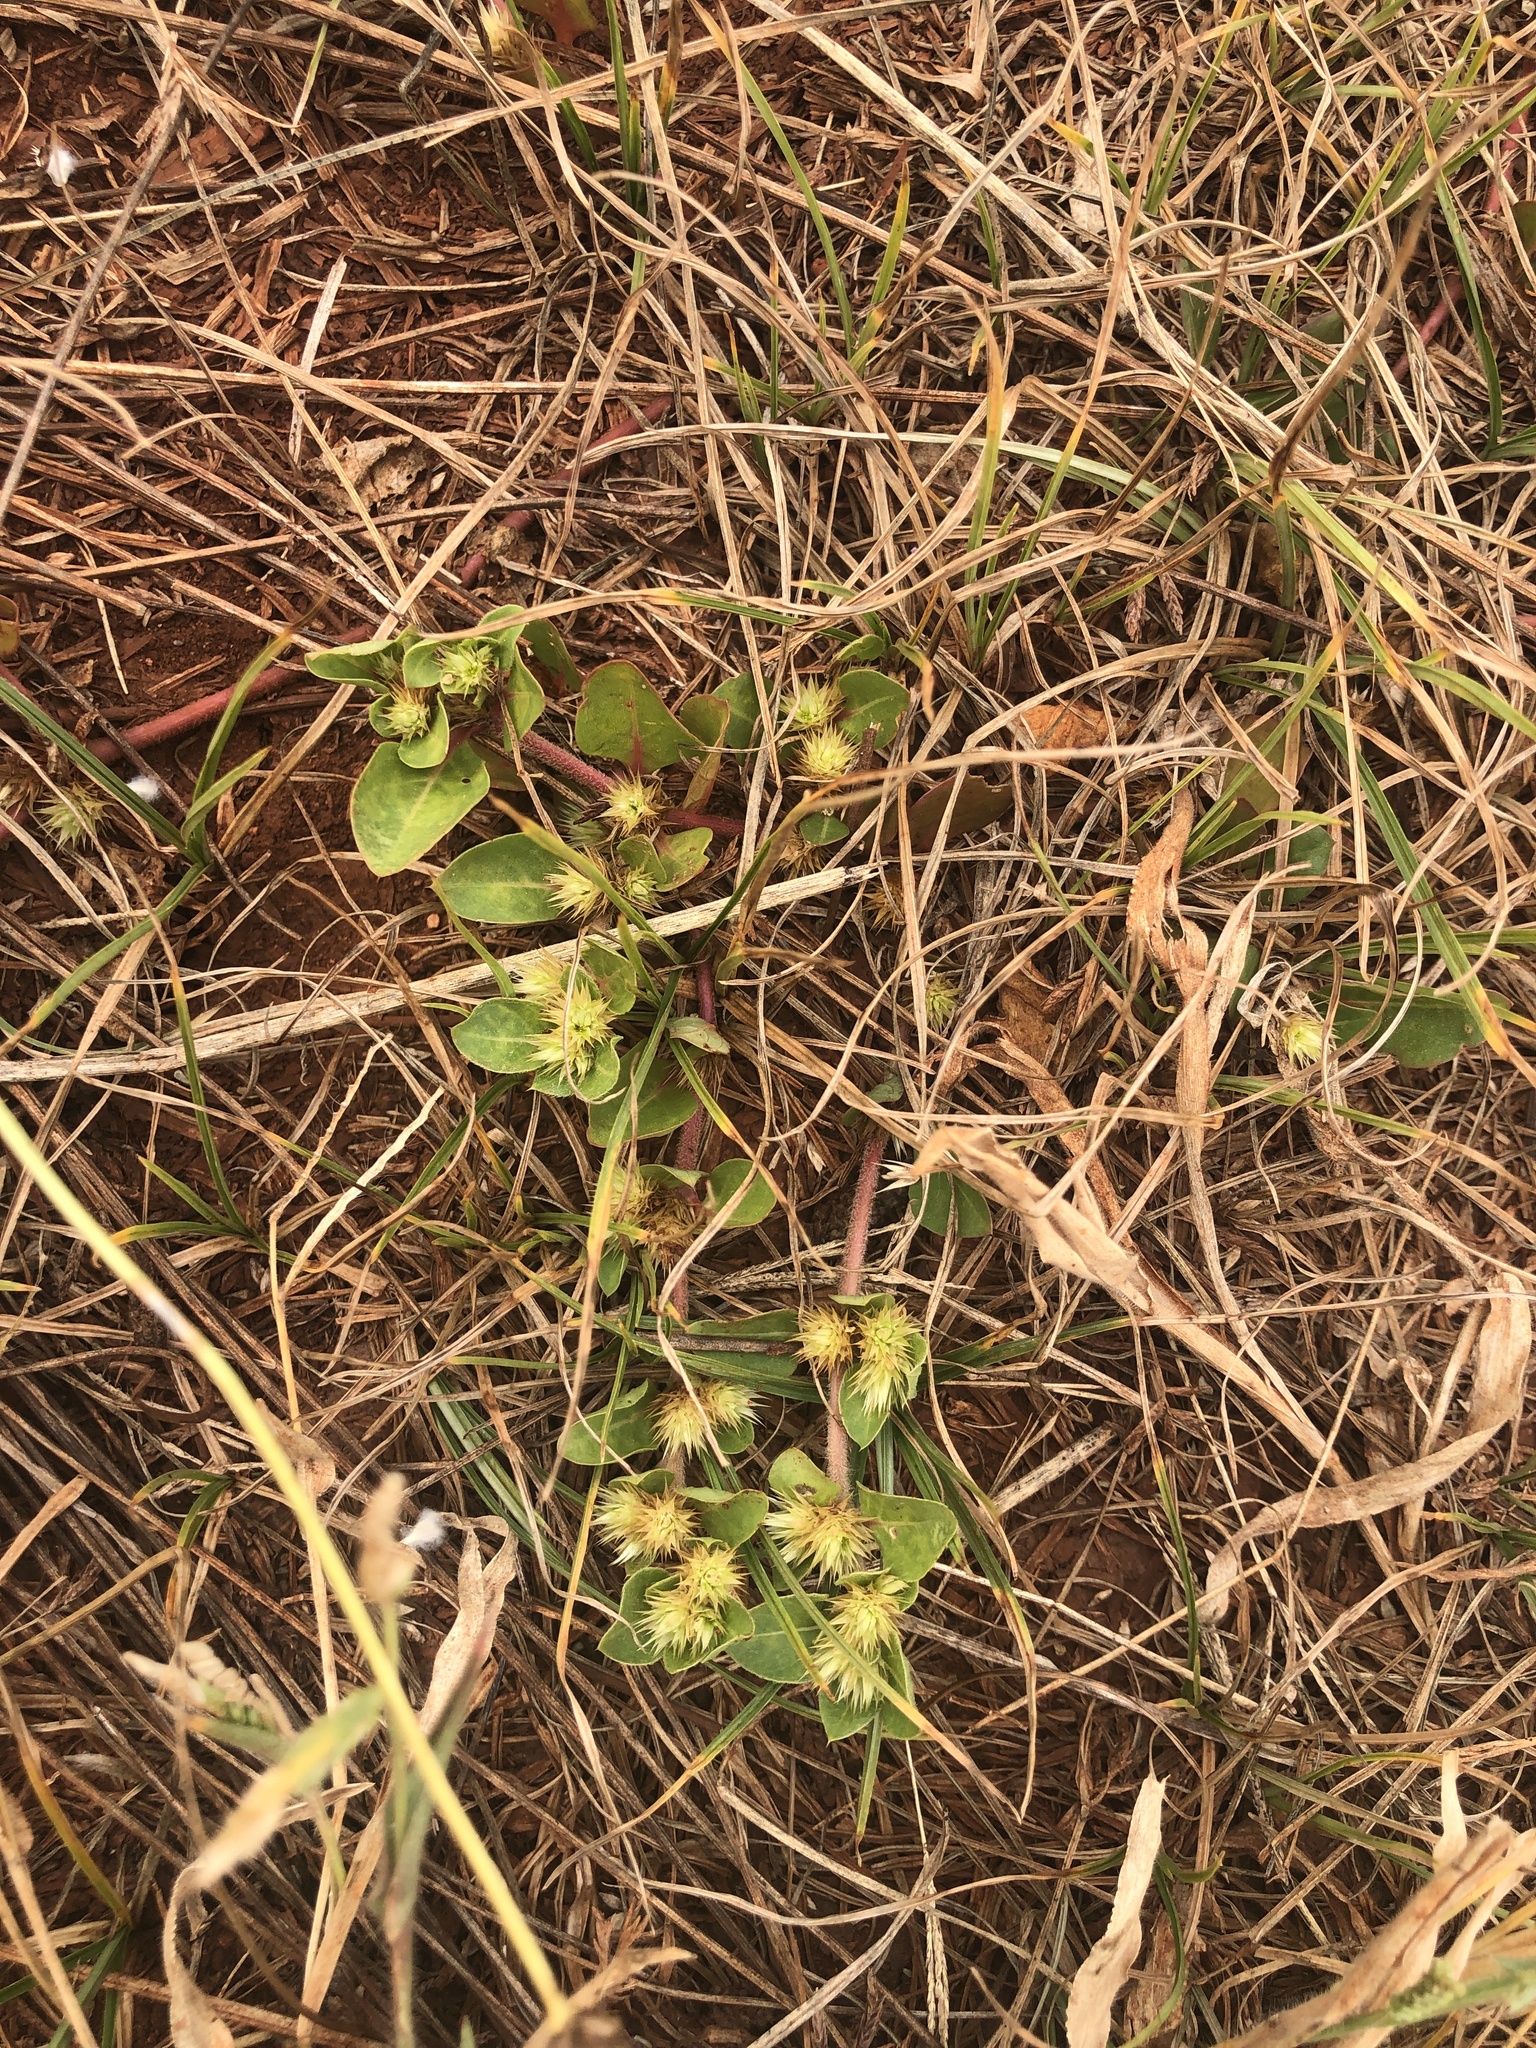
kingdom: Plantae
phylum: Tracheophyta
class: Magnoliopsida
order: Caryophyllales
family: Amaranthaceae
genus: Alternanthera
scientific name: Alternanthera pungens
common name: Khakiweed
